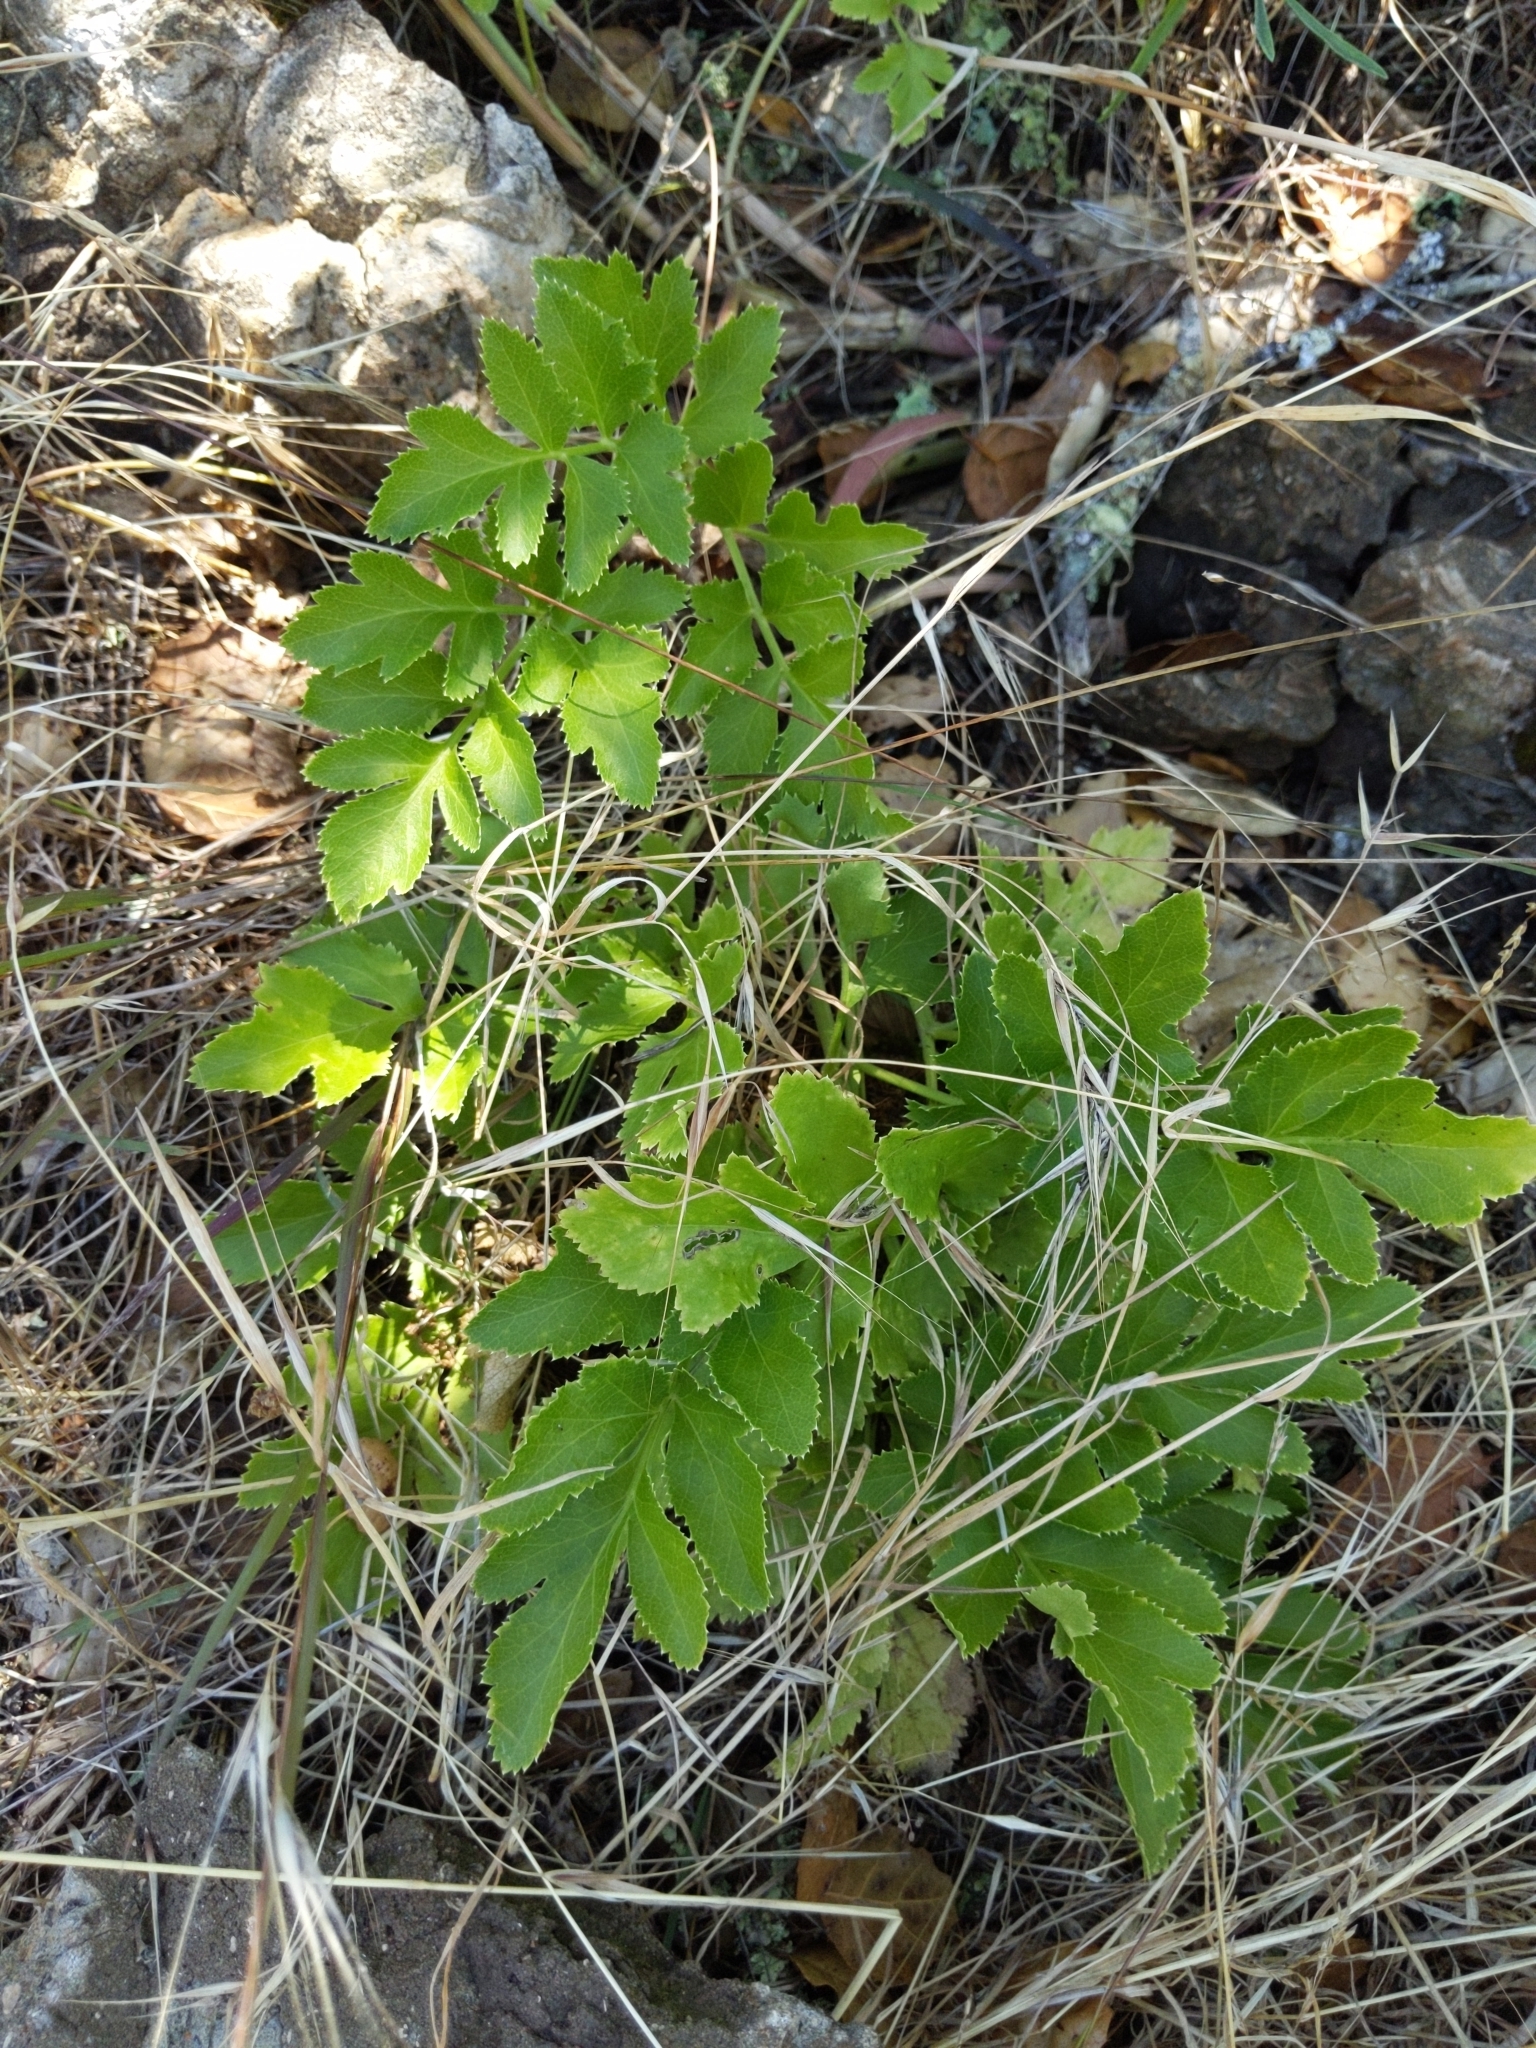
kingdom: Plantae
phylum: Tracheophyta
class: Magnoliopsida
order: Apiales
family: Apiaceae
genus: Tauschia
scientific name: Tauschia hartwegii
